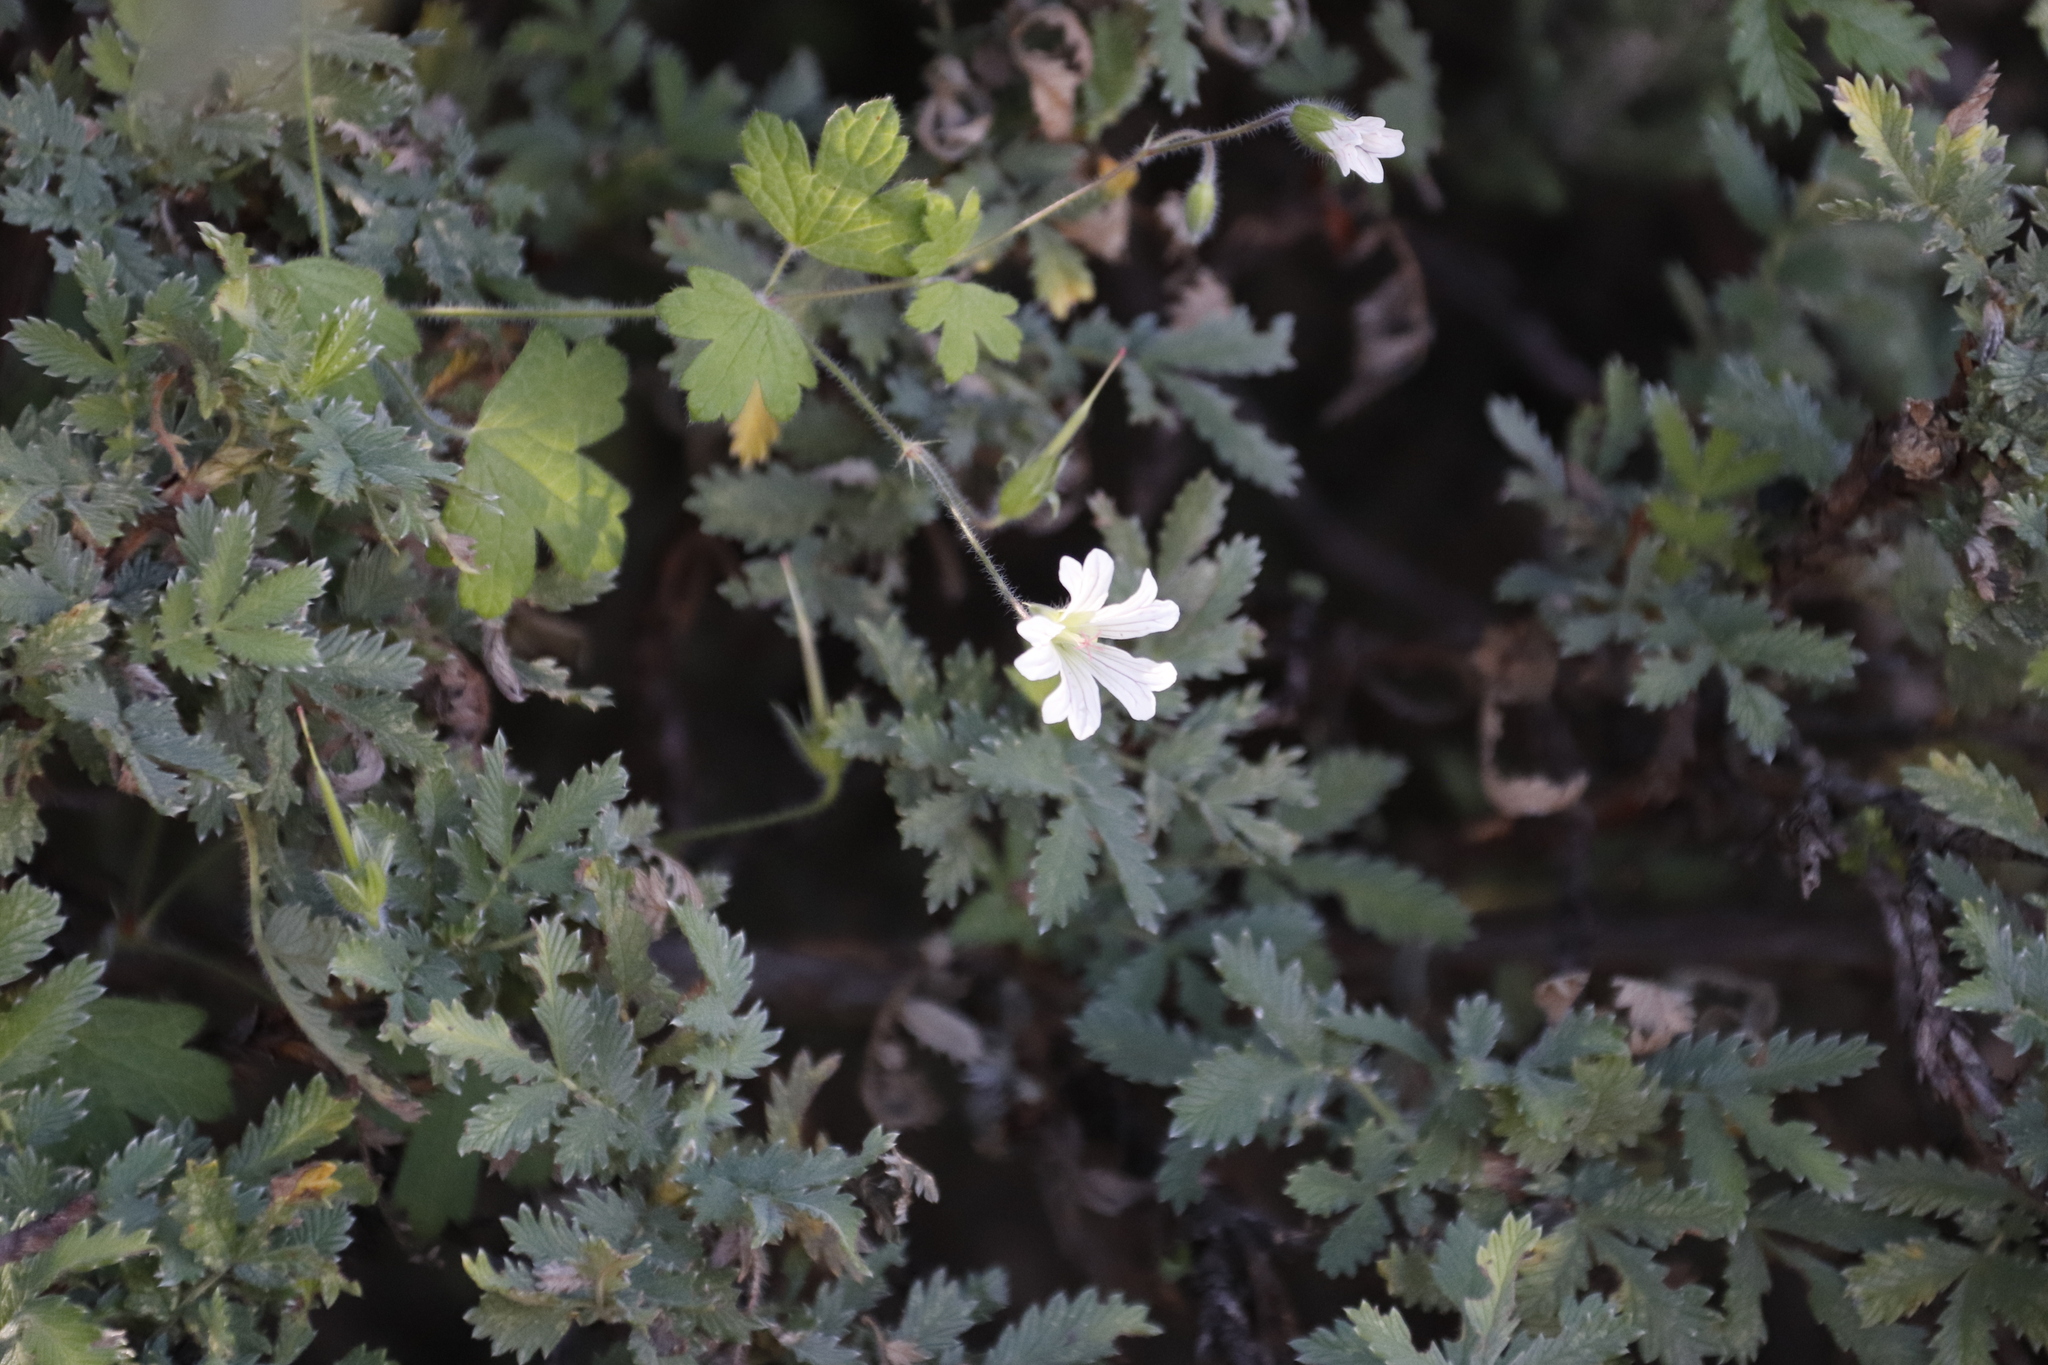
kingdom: Plantae
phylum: Tracheophyta
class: Magnoliopsida
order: Geraniales
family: Geraniaceae
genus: Geranium
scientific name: Geranium wakkerstroomianum
